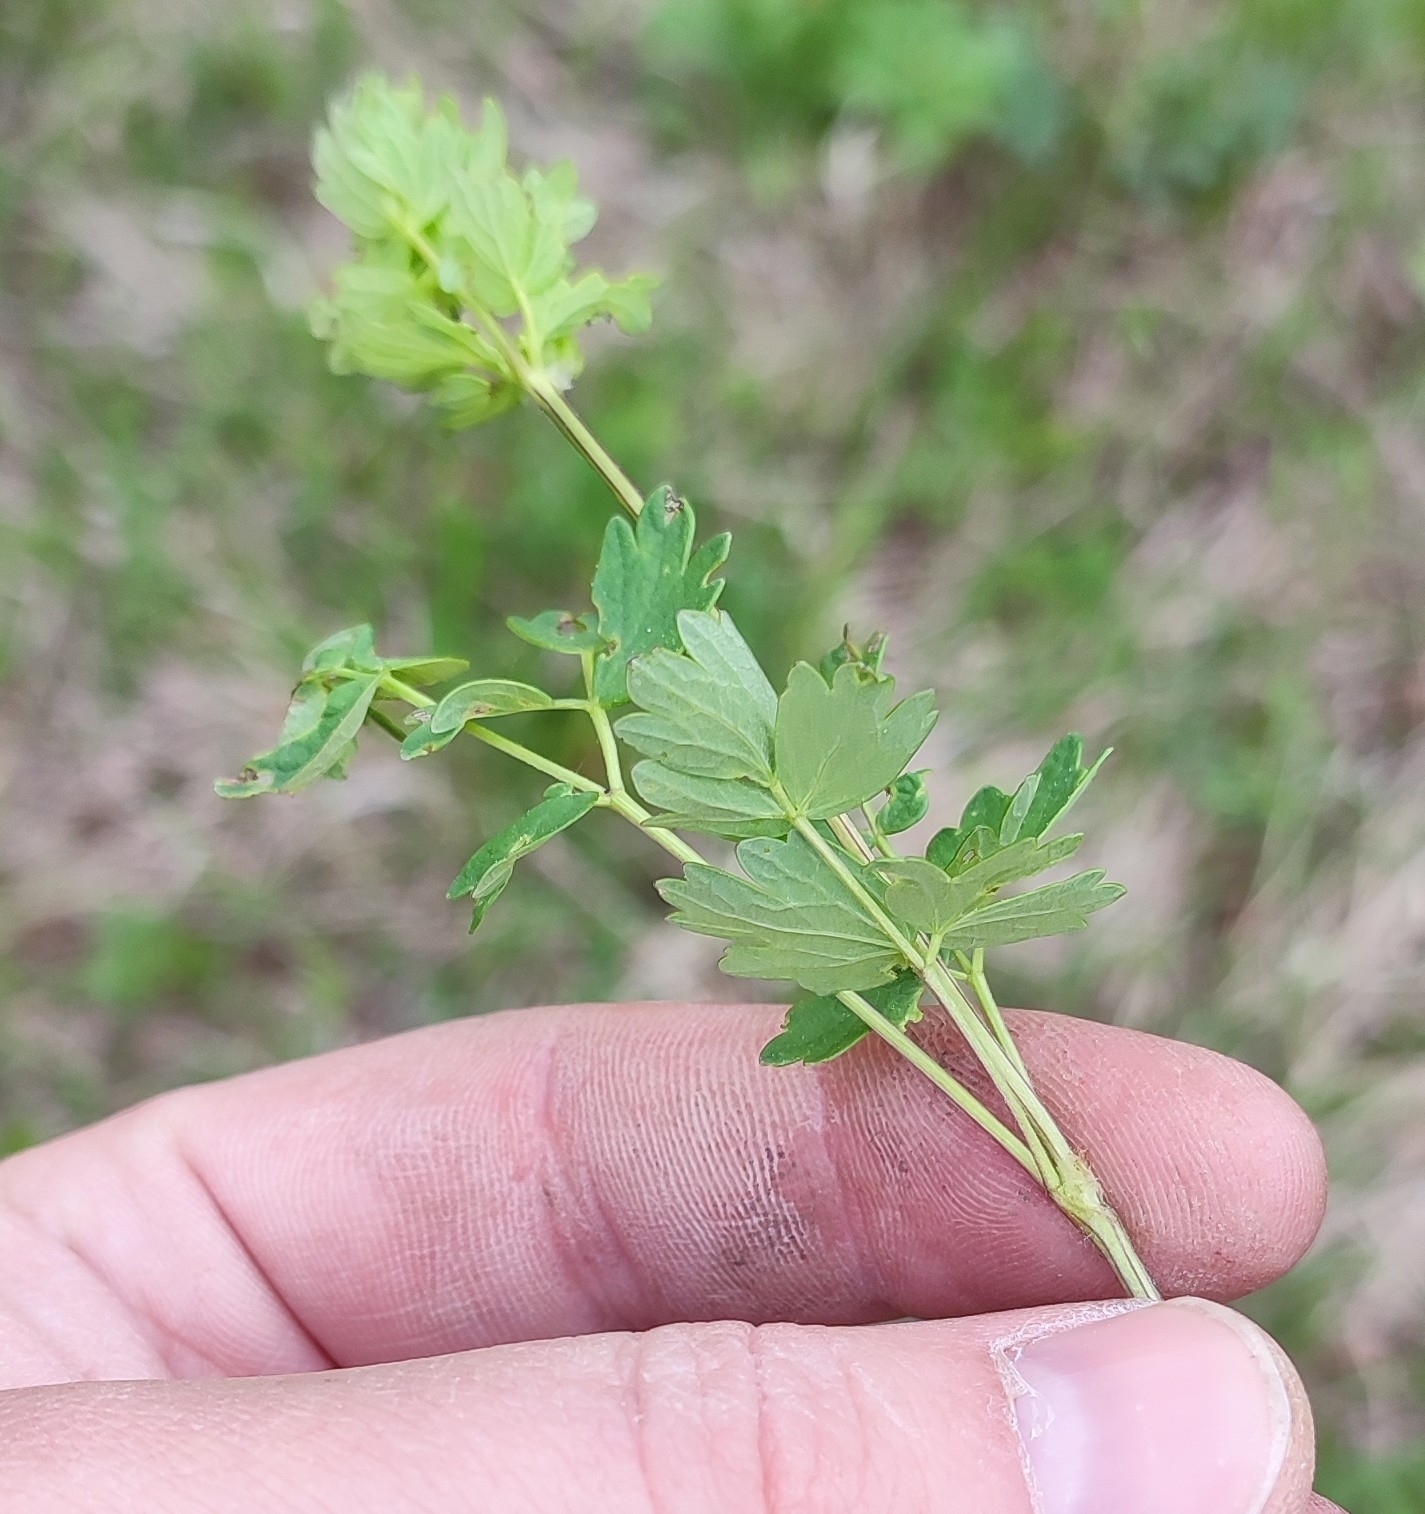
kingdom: Plantae
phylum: Tracheophyta
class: Magnoliopsida
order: Ranunculales
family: Ranunculaceae
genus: Thalictrum
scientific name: Thalictrum simplex
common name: Small meadow-rue
